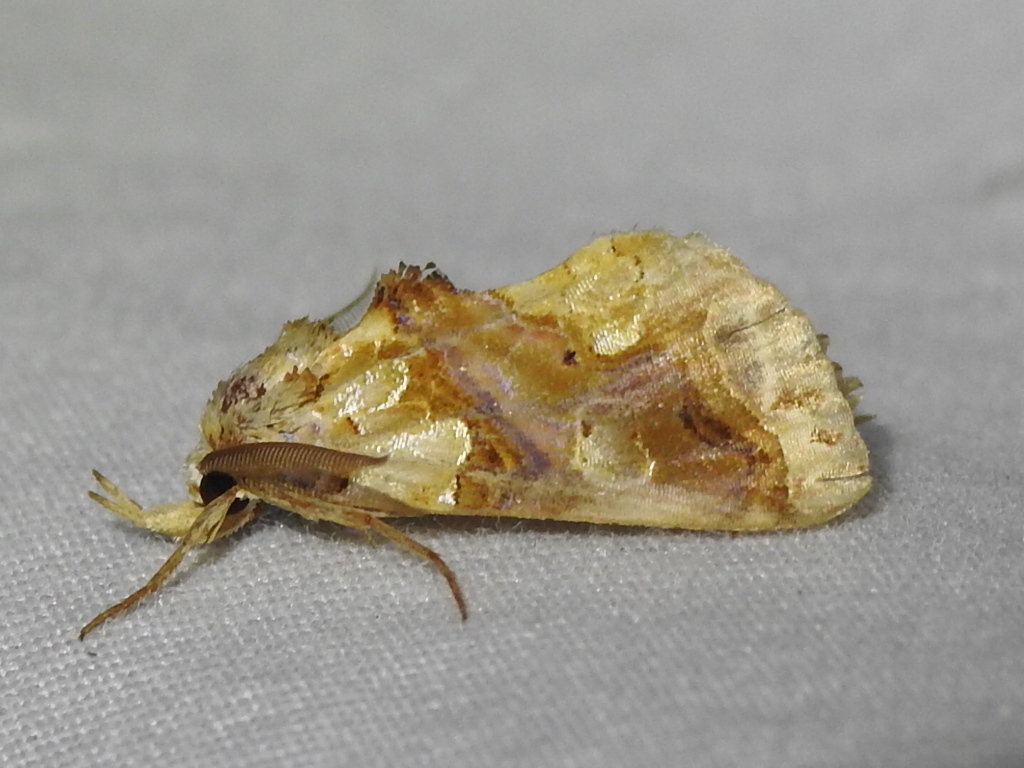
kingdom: Animalia
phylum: Arthropoda
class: Insecta
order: Lepidoptera
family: Erebidae
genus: Plusiodonta
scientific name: Plusiodonta compressipalpis
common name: Moonseed moth
